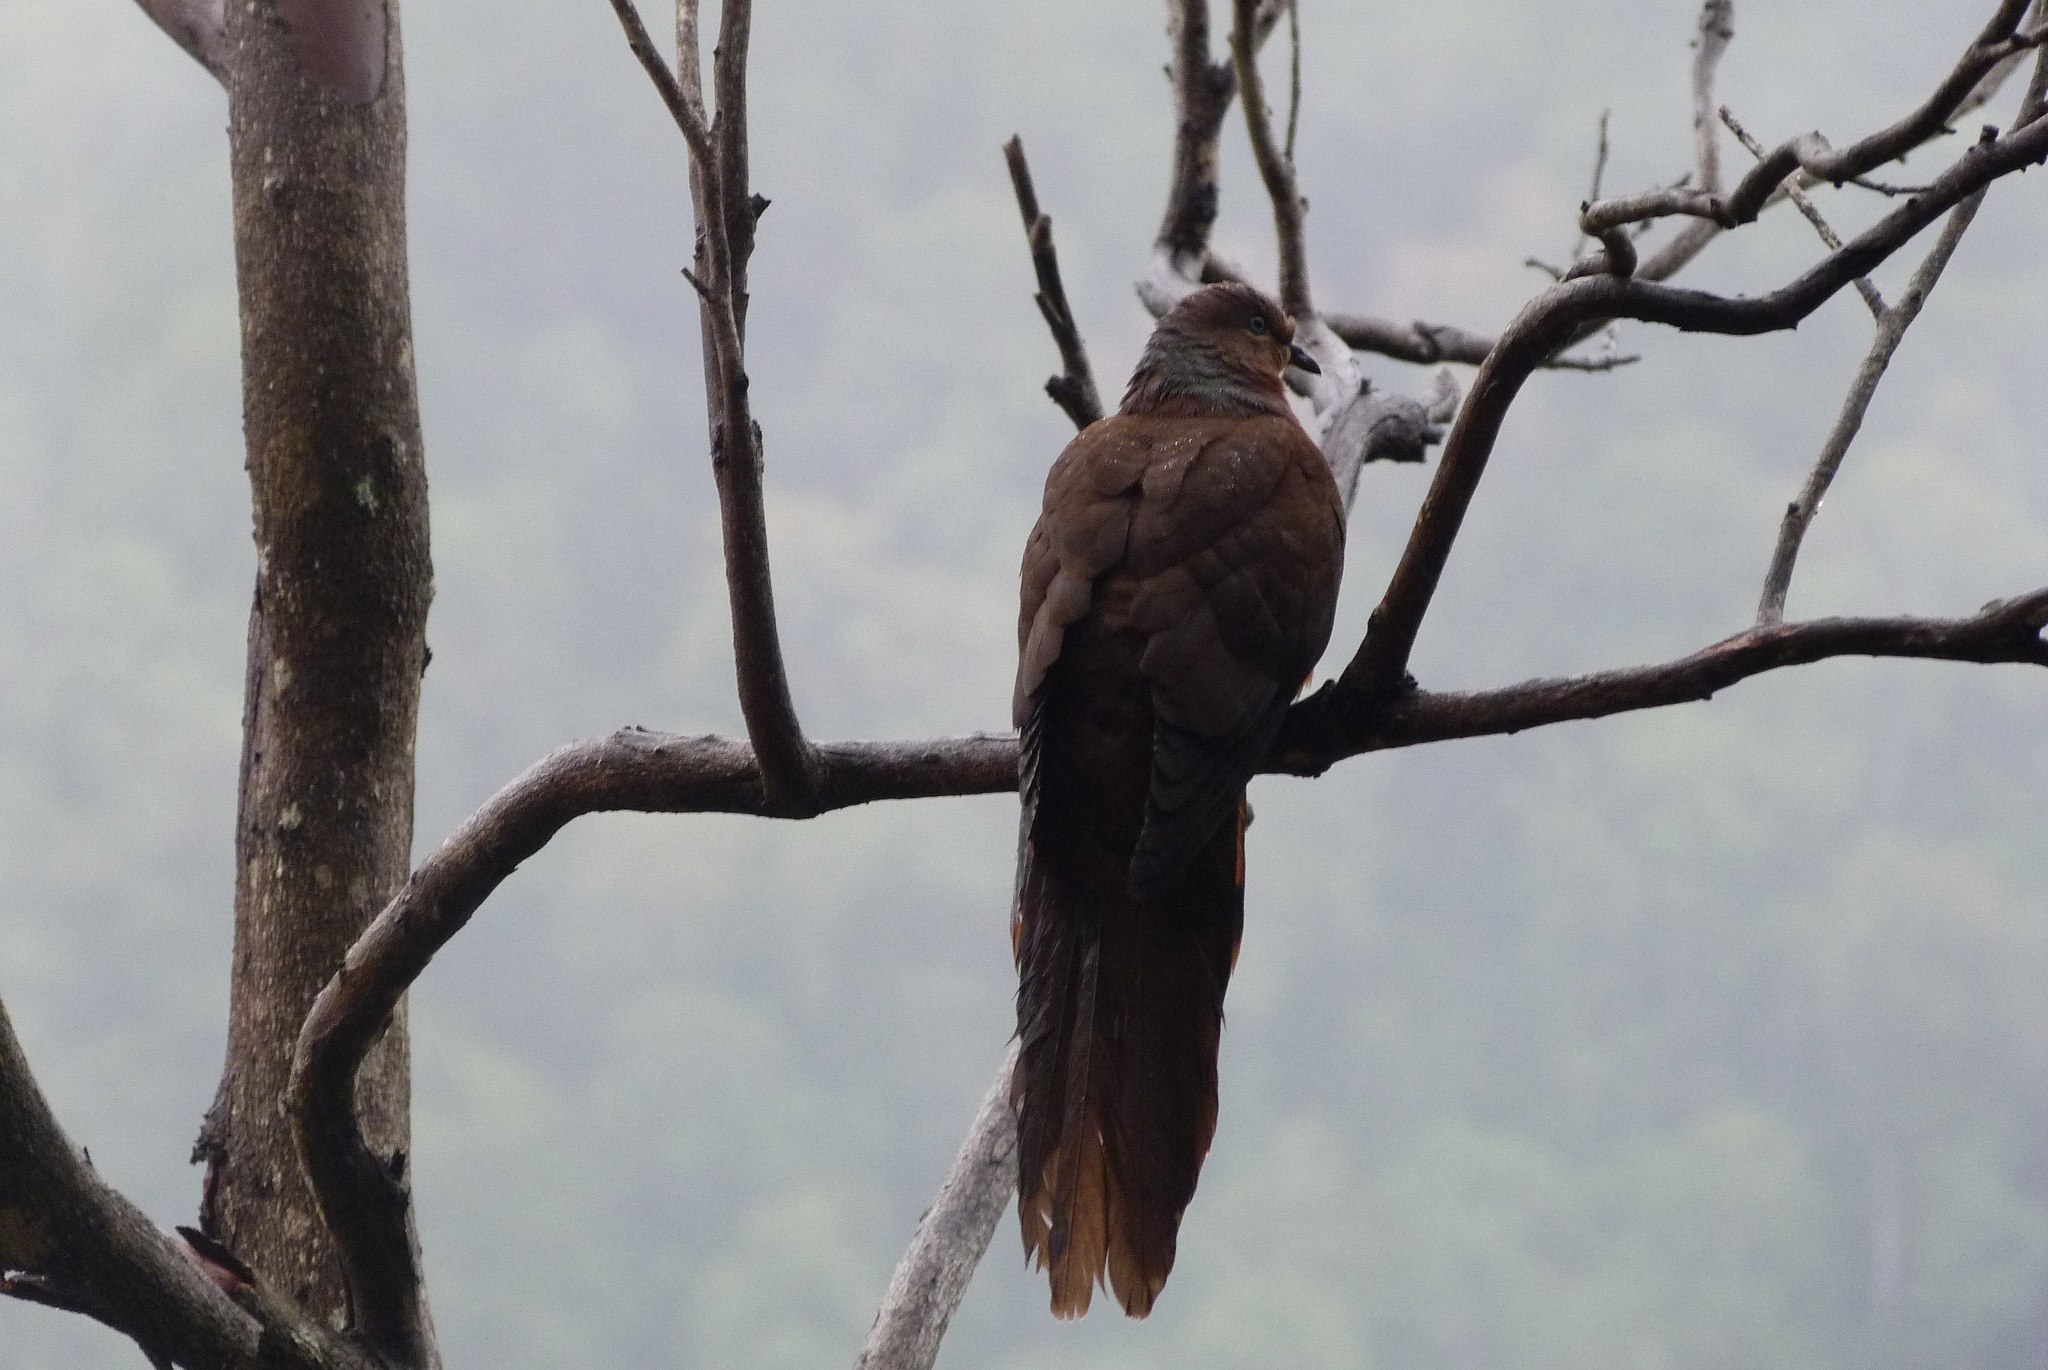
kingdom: Animalia
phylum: Chordata
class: Aves
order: Columbiformes
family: Columbidae
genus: Macropygia
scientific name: Macropygia phasianella
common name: Brown cuckoo-dove
